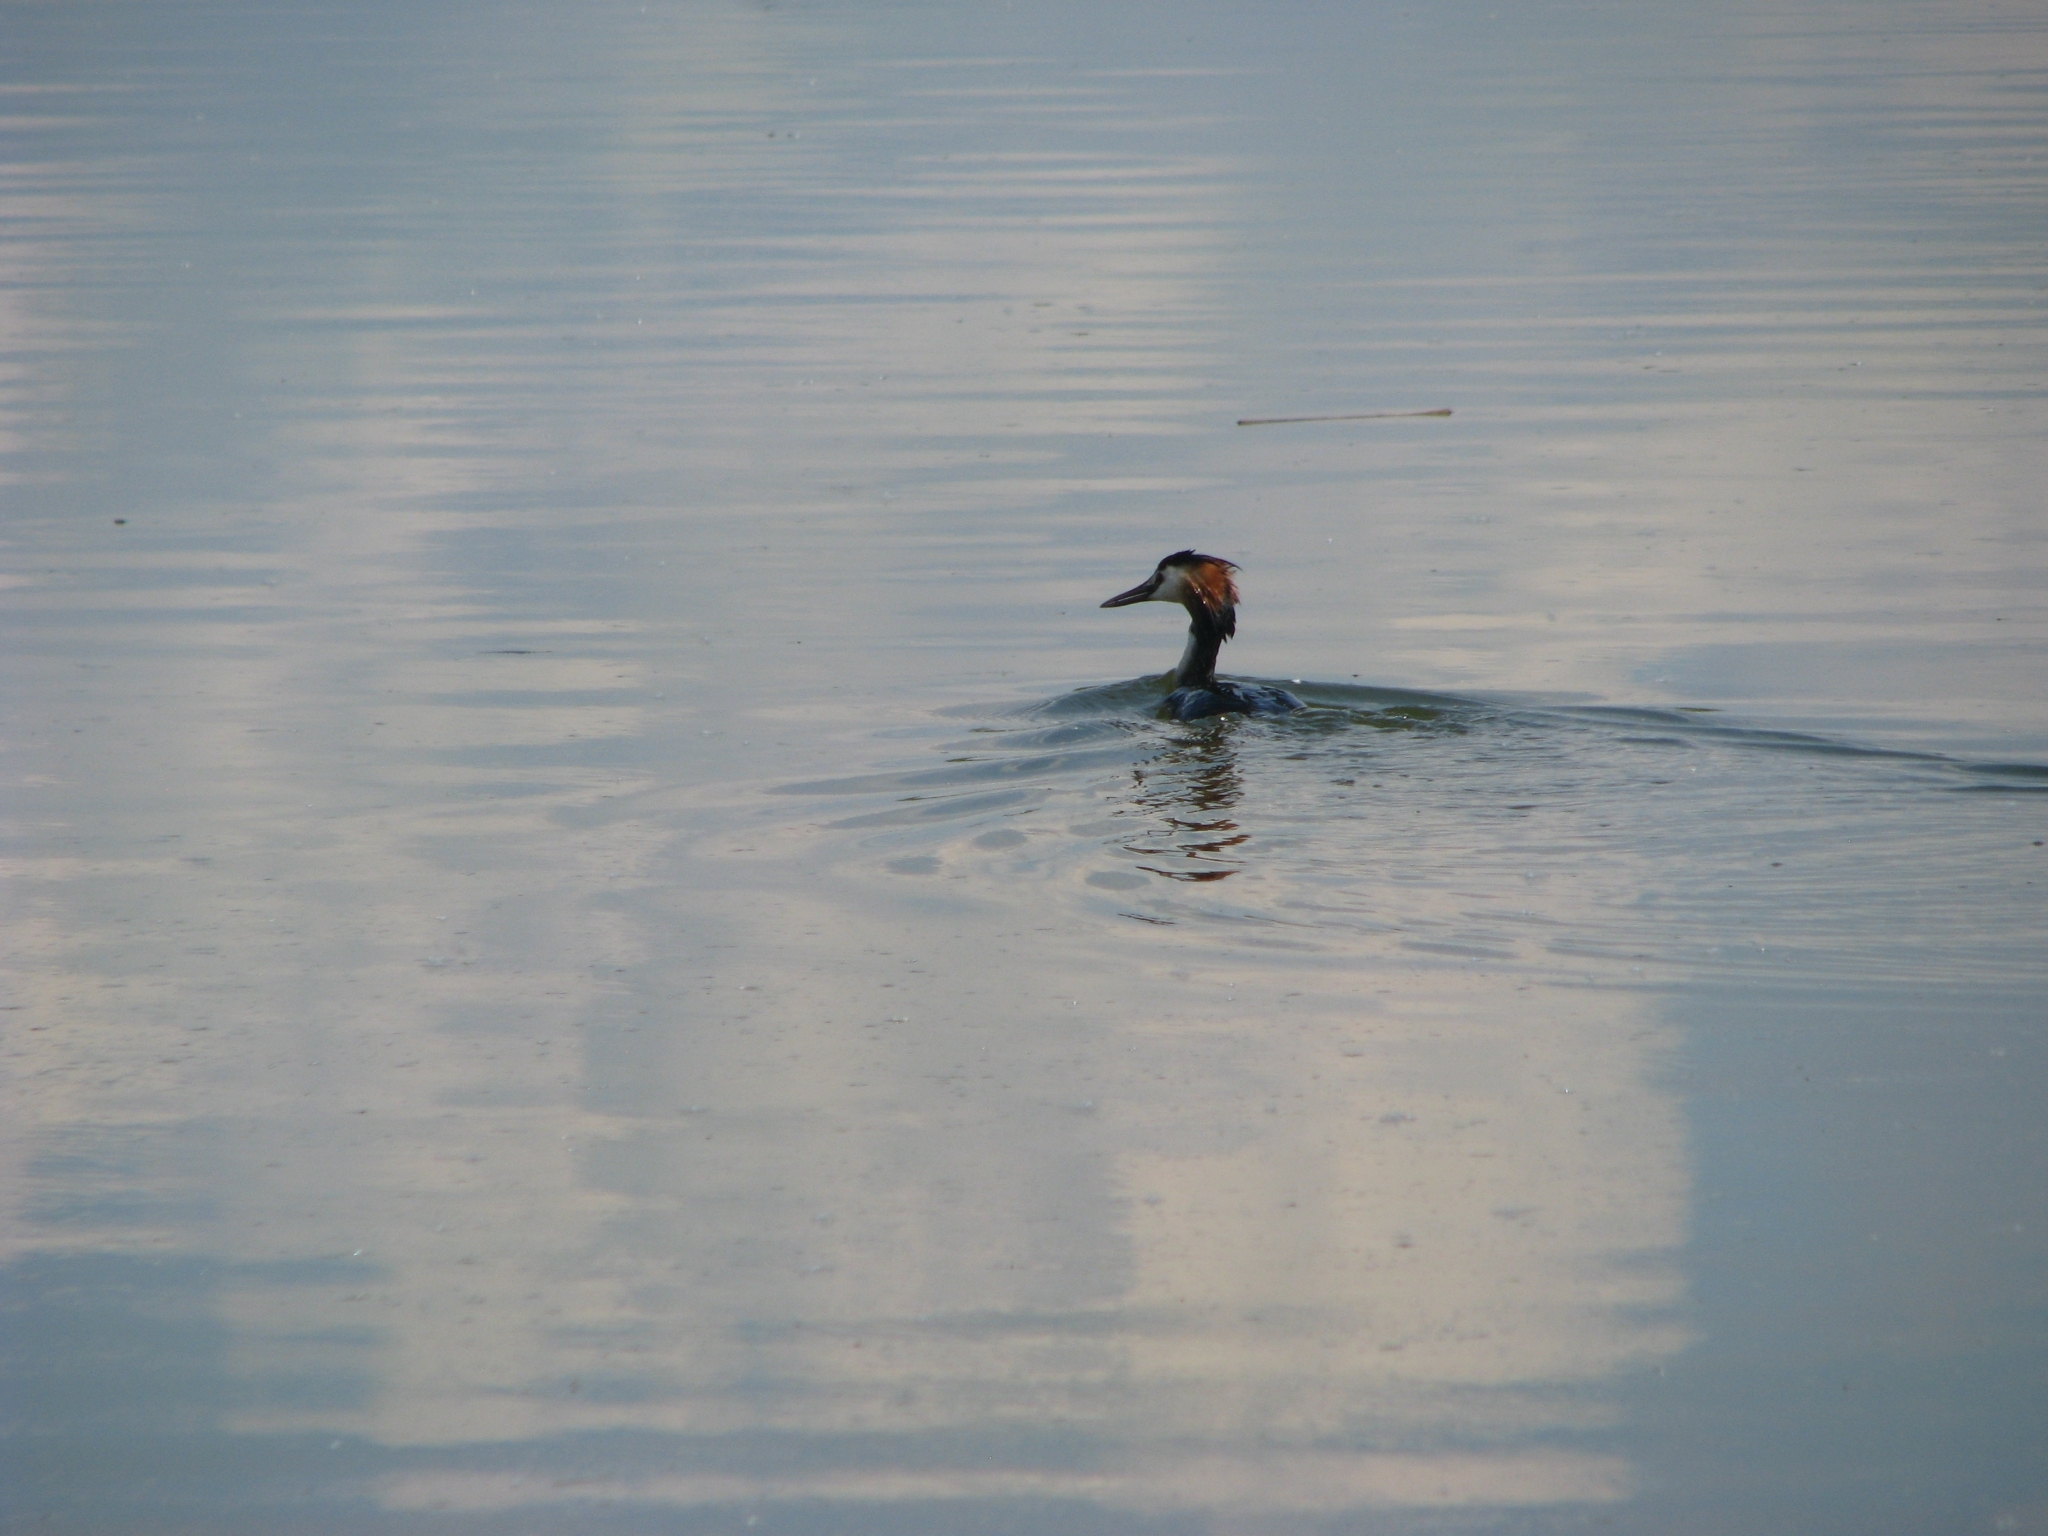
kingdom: Animalia
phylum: Chordata
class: Aves
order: Podicipediformes
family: Podicipedidae
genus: Podiceps
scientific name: Podiceps cristatus
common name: Great crested grebe
